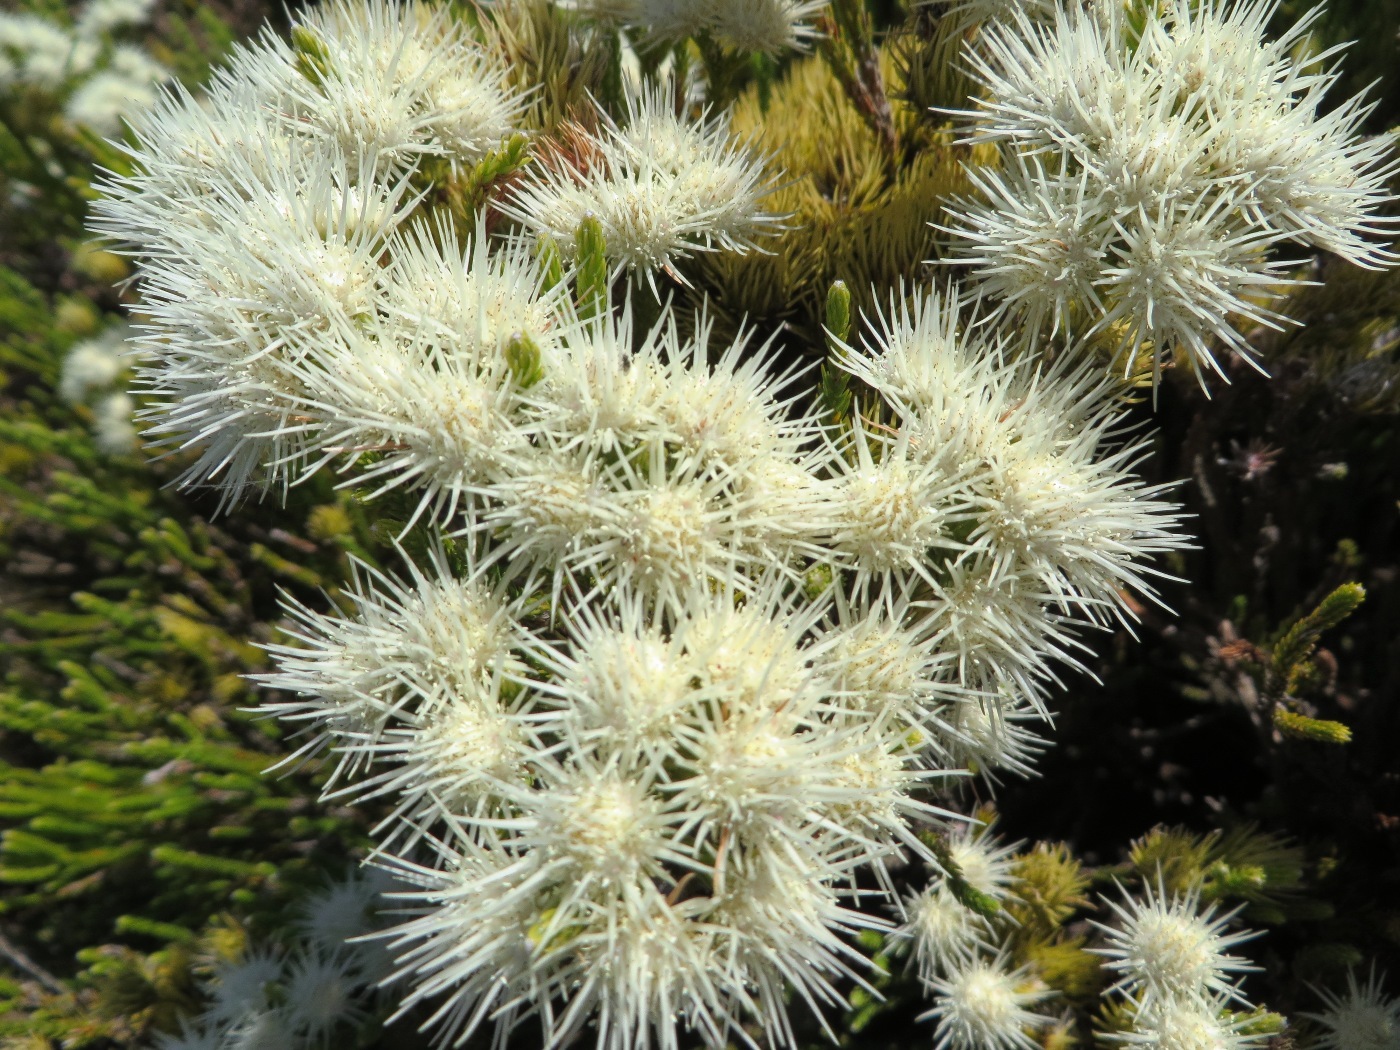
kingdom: Plantae
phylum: Tracheophyta
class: Magnoliopsida
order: Bruniales
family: Bruniaceae
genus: Brunia
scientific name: Brunia paleacea
